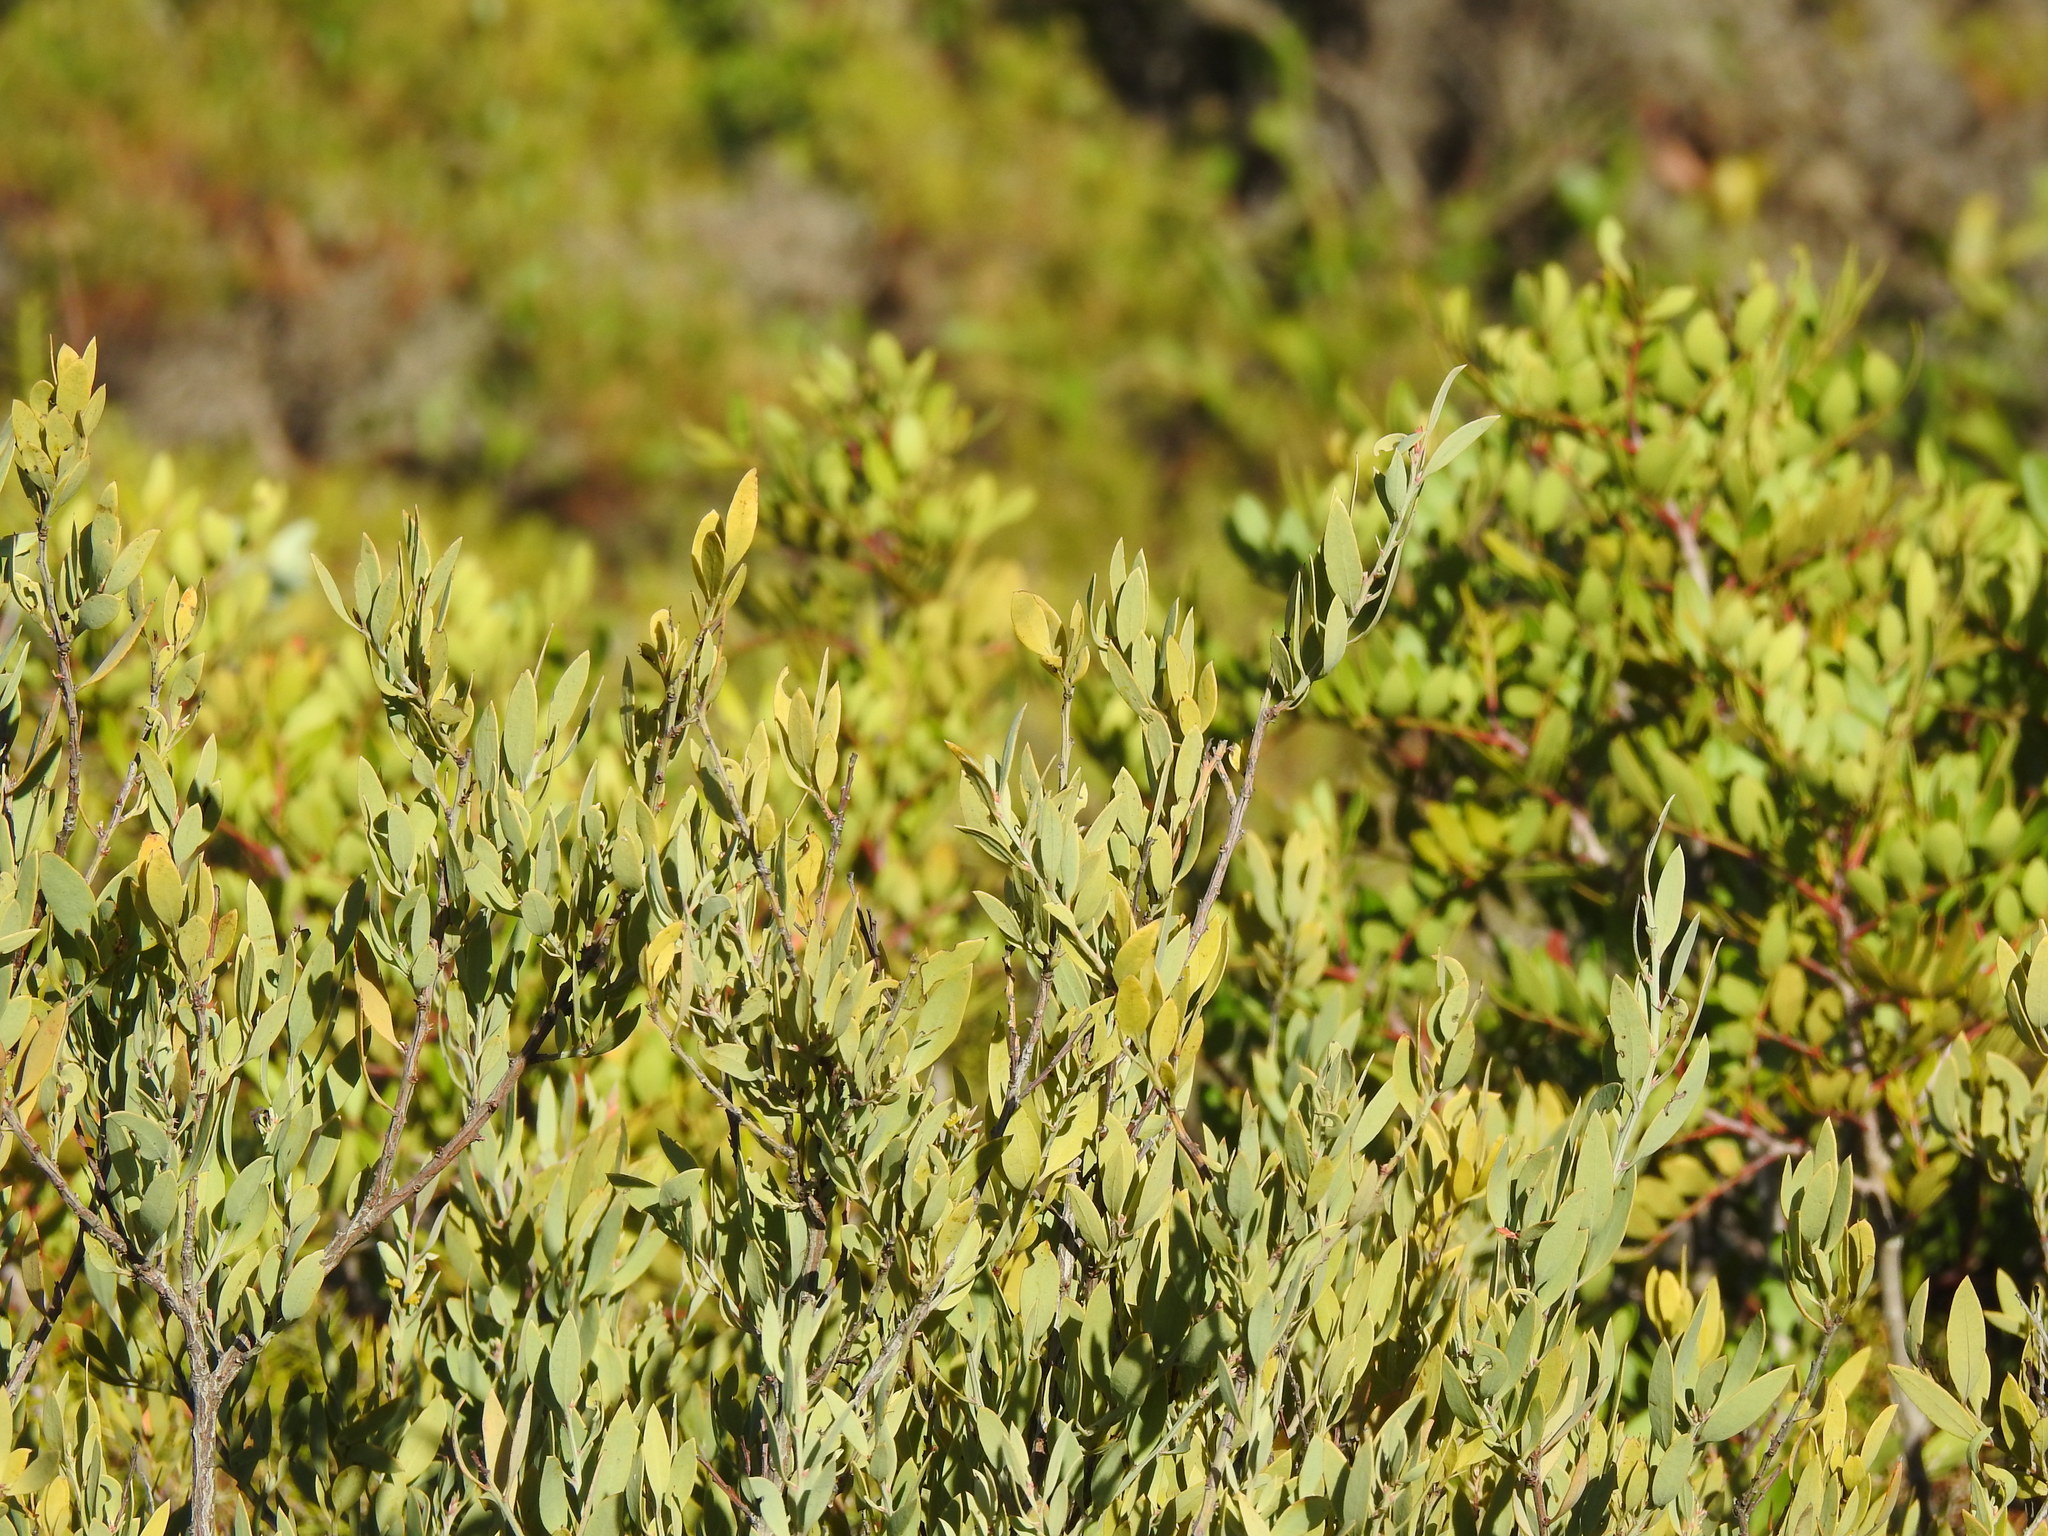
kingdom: Plantae
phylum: Tracheophyta
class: Magnoliopsida
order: Santalales
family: Santalaceae
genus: Osyris
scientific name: Osyris lanceolata
